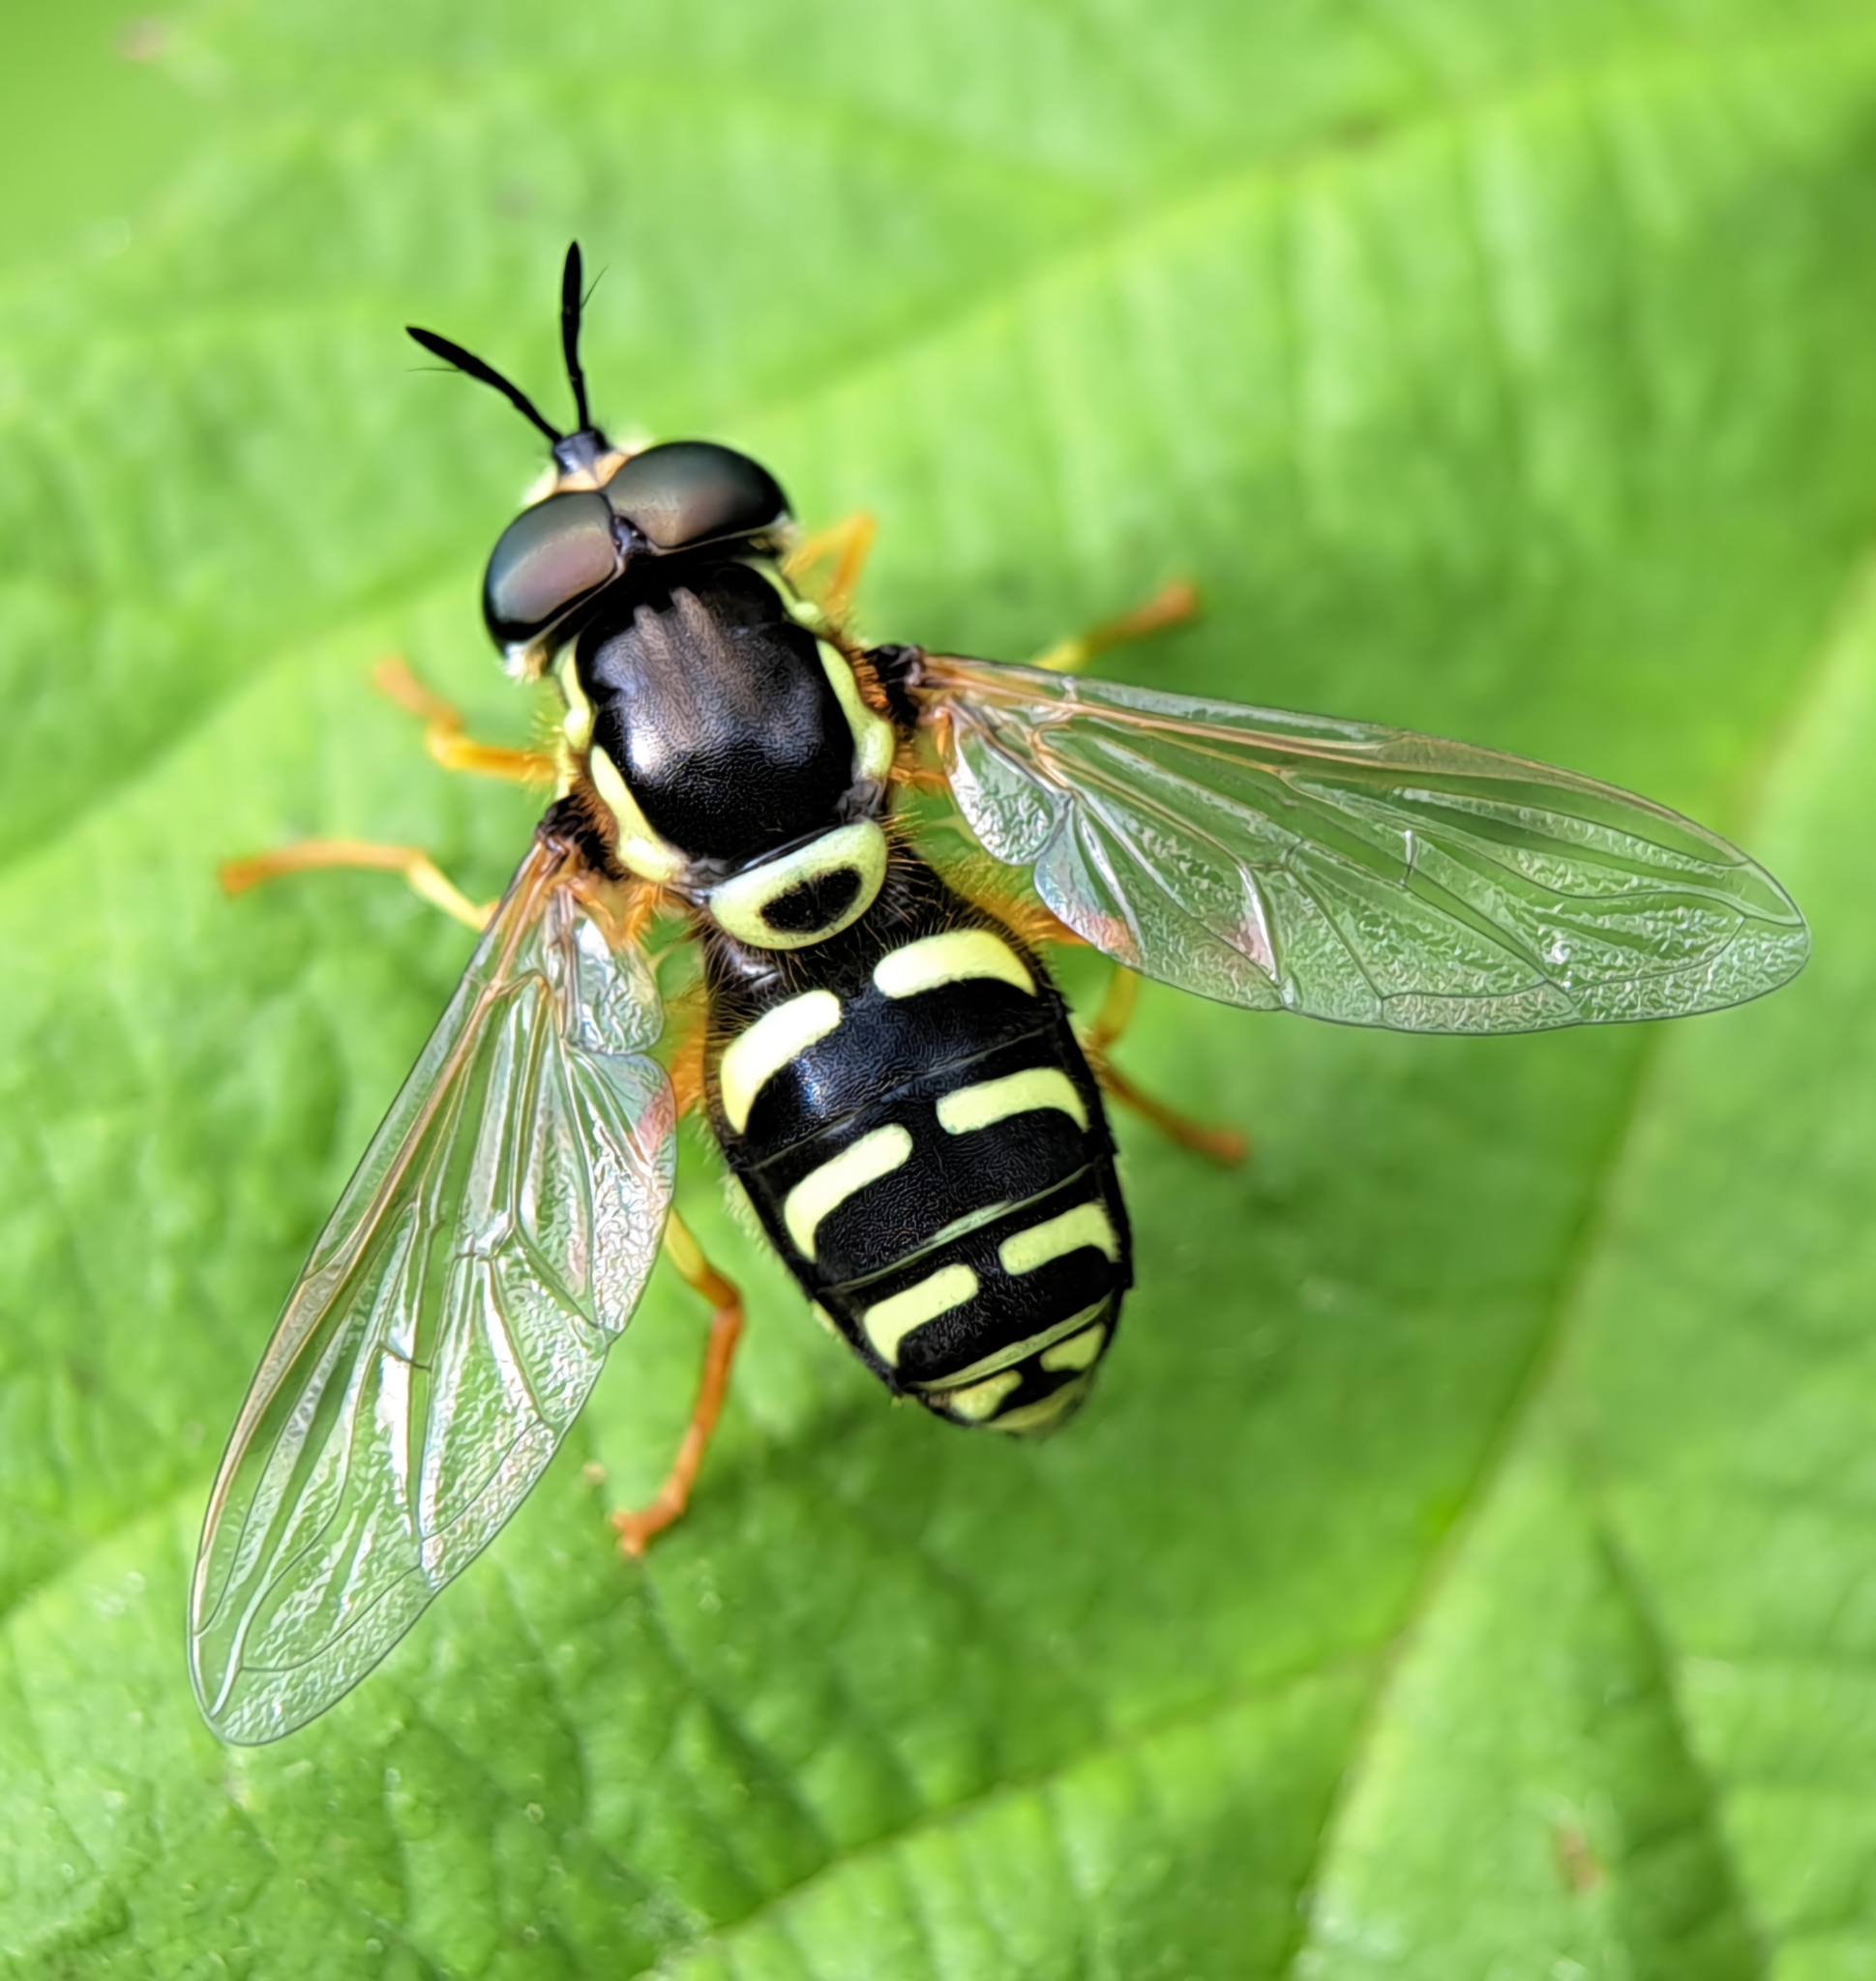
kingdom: Animalia
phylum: Arthropoda
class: Insecta
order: Diptera
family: Syrphidae
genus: Chrysotoxum
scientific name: Chrysotoxum festivum
